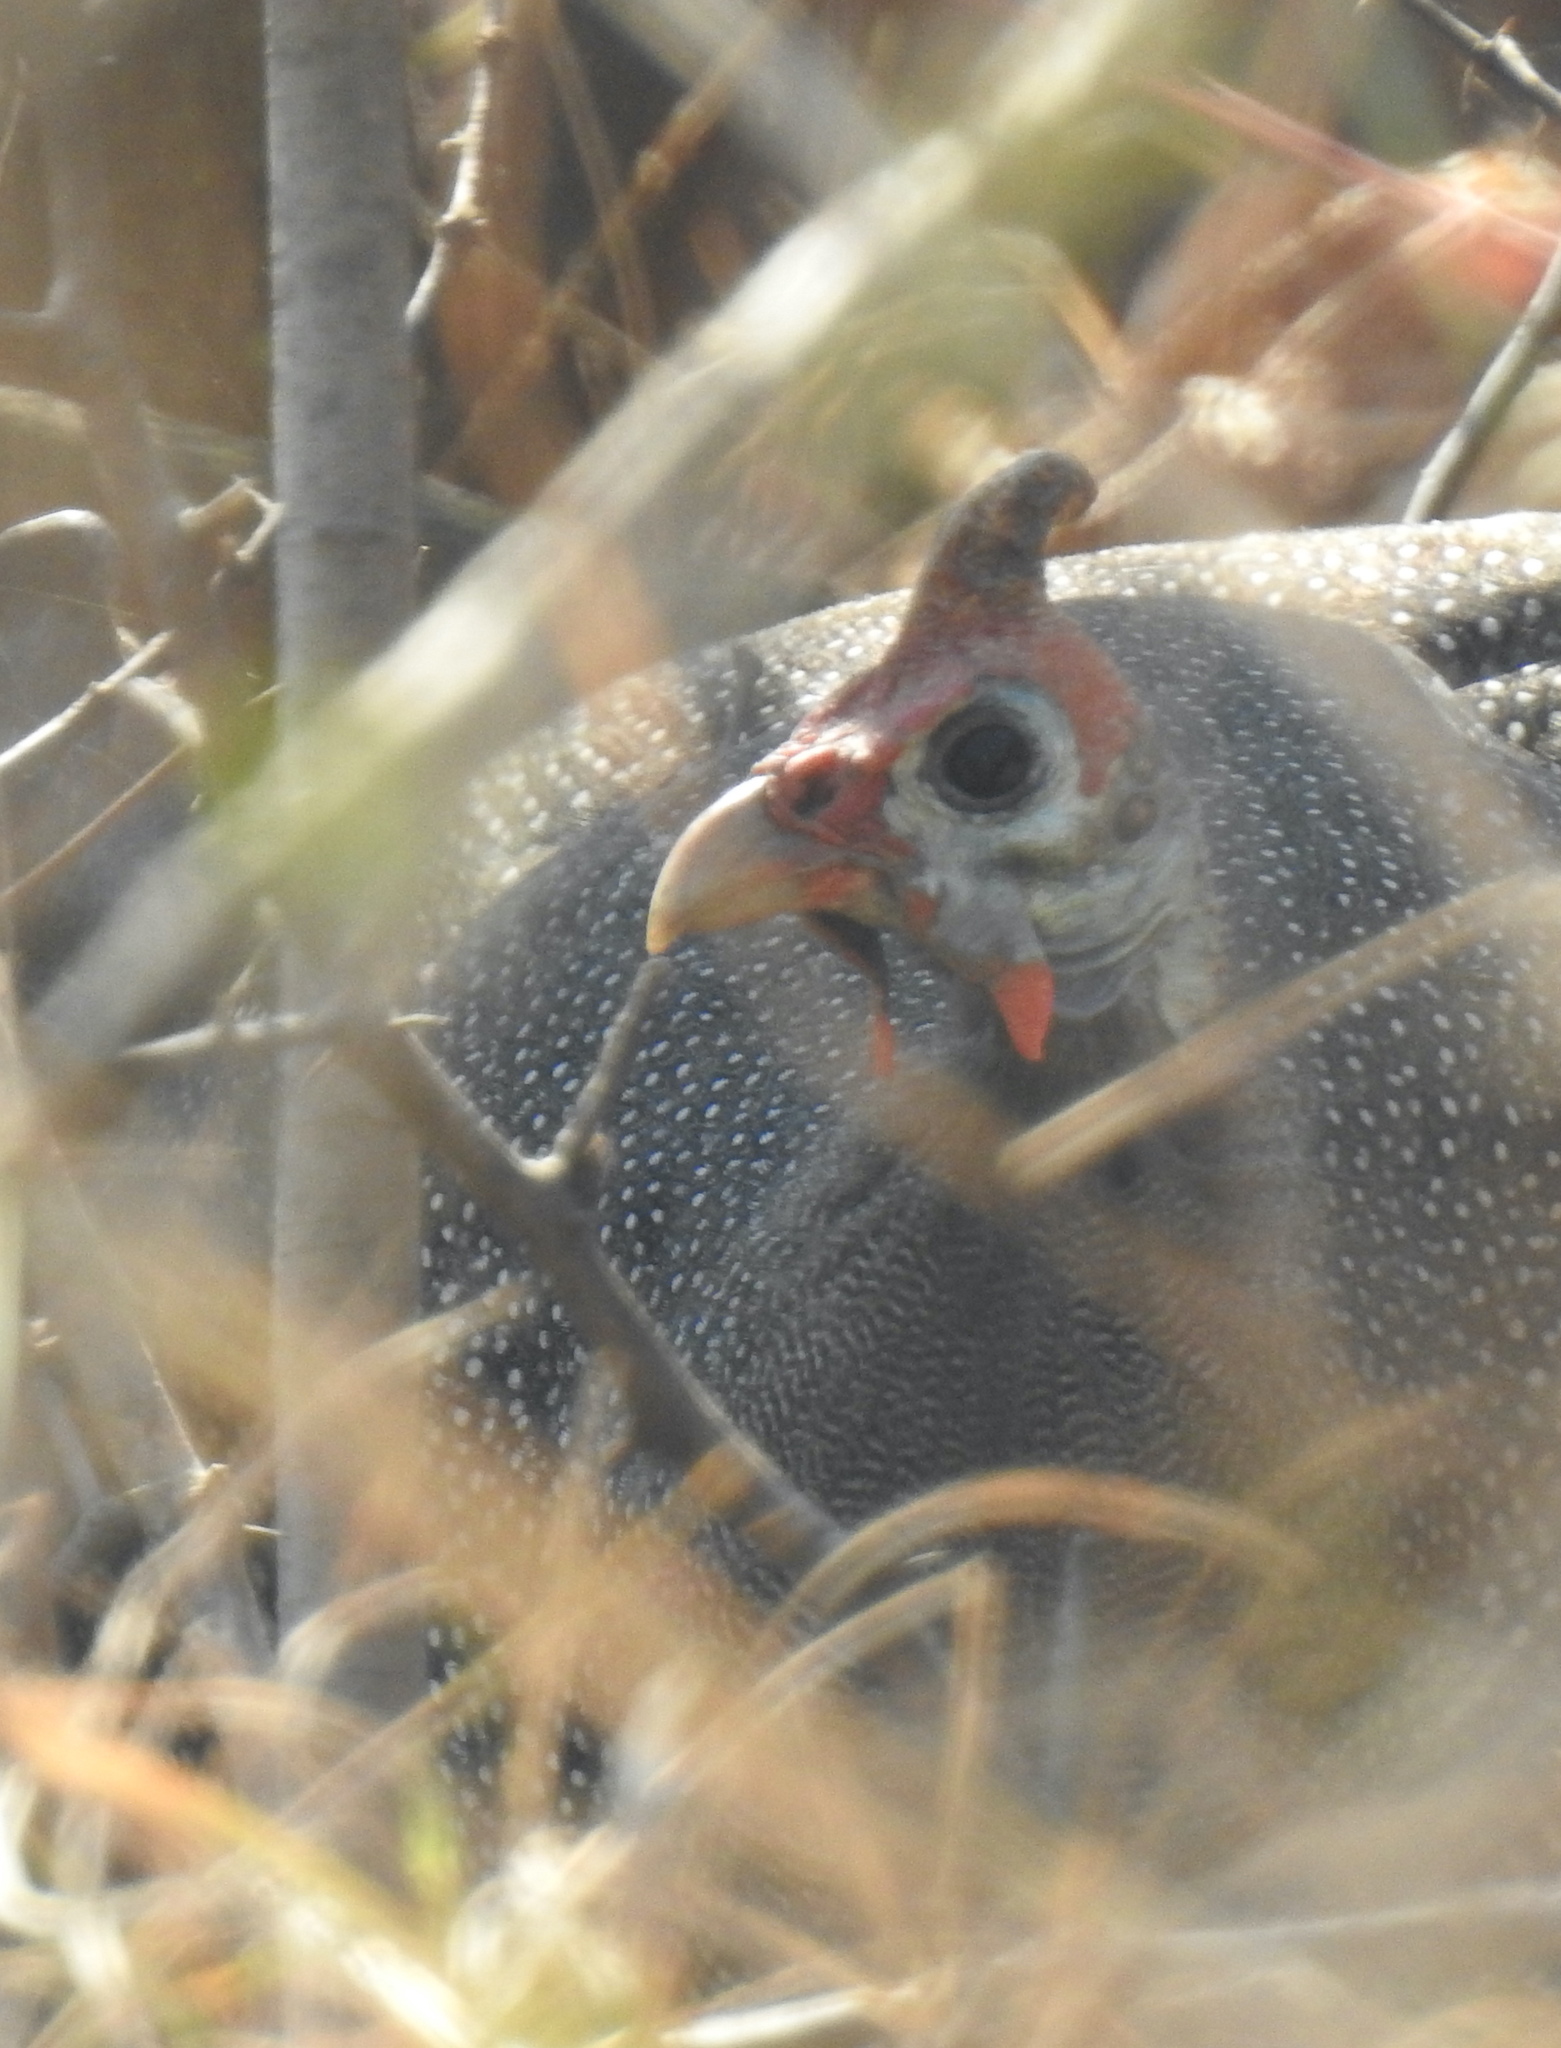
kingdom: Animalia
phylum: Chordata
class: Aves
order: Galliformes
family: Numididae
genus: Numida
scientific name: Numida meleagris
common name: Helmeted guineafowl
